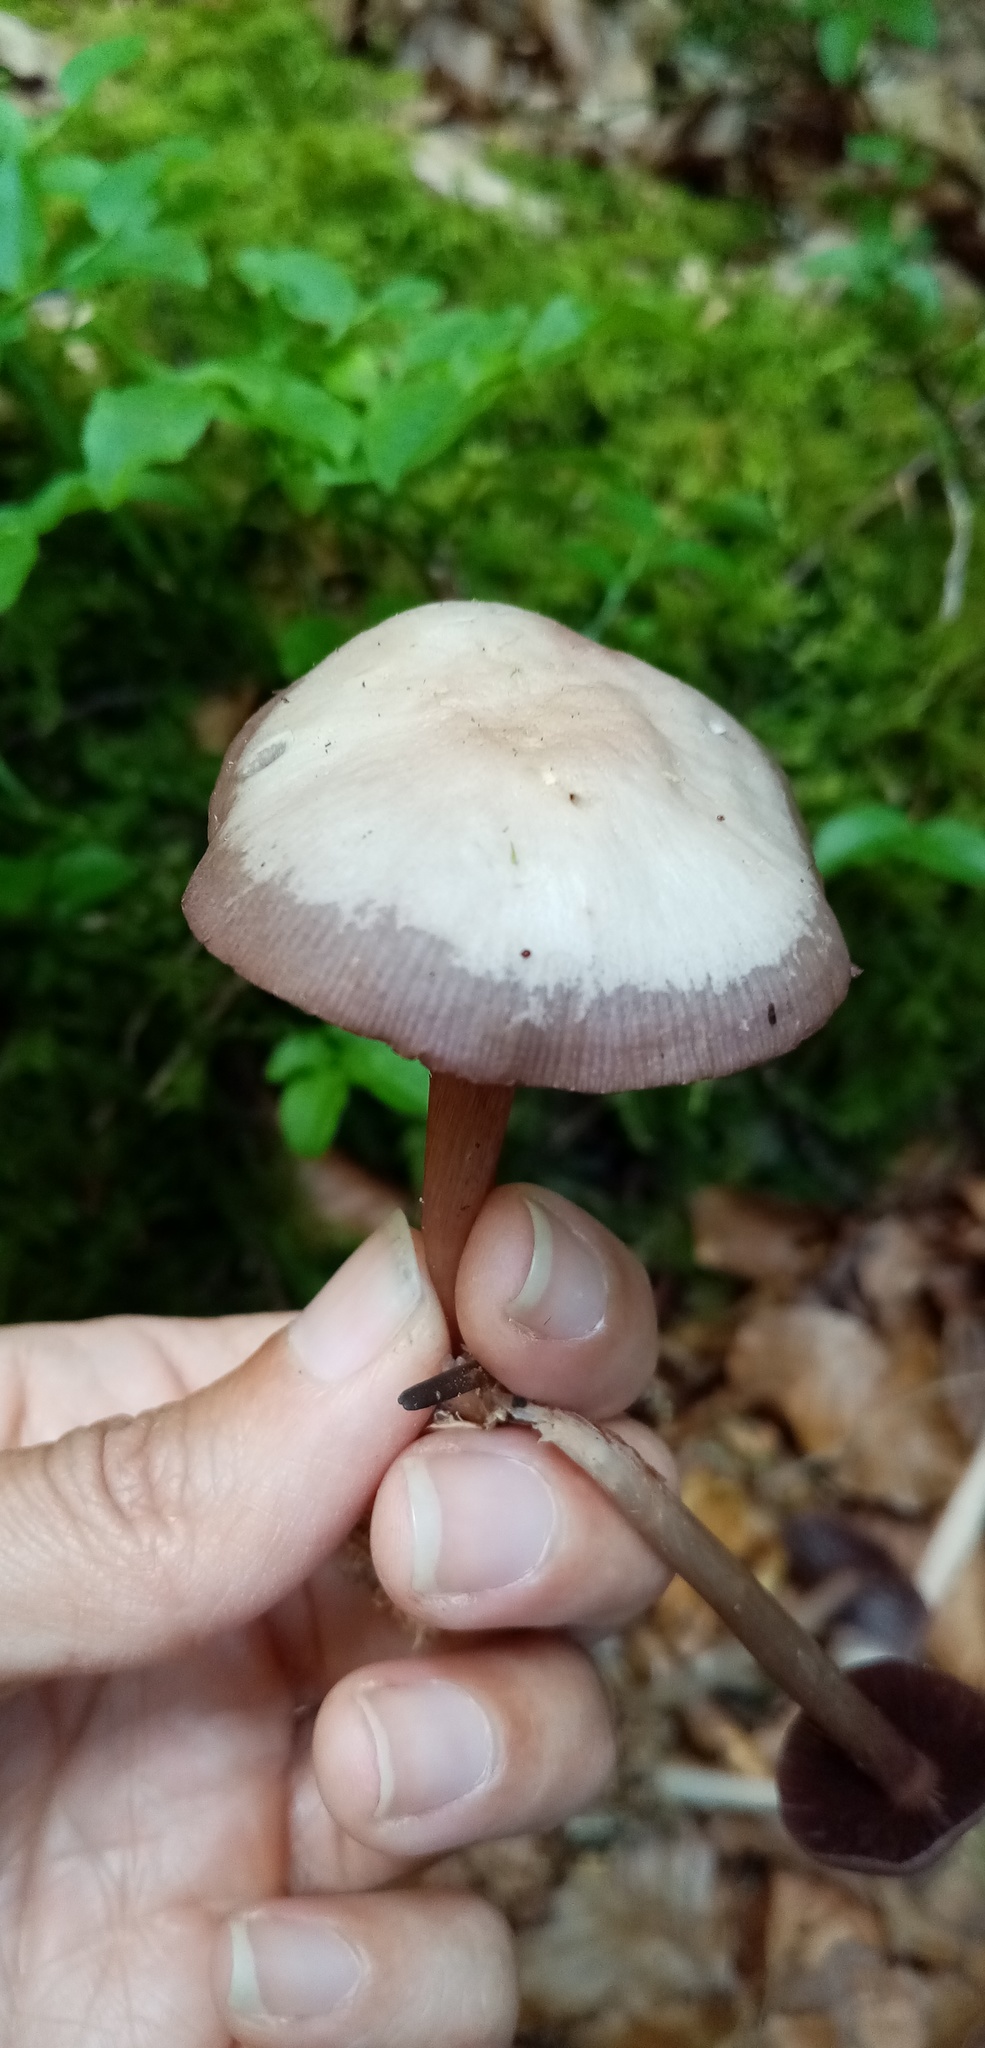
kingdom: Fungi
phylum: Basidiomycota
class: Agaricomycetes
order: Agaricales
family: Mycenaceae
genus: Mycena
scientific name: Mycena pelianthina
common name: Blackedge bonnet
